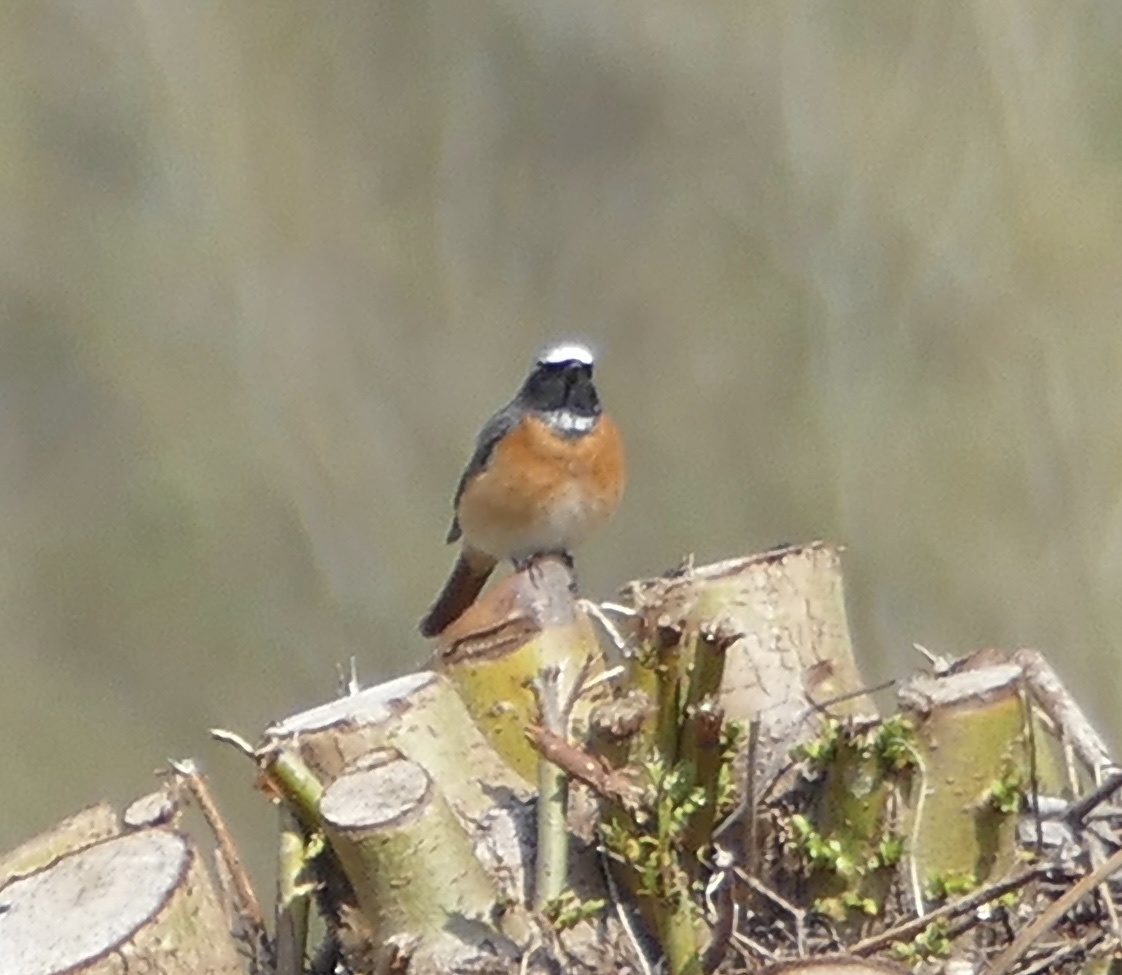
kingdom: Animalia
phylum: Chordata
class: Aves
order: Passeriformes
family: Muscicapidae
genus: Phoenicurus
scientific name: Phoenicurus phoenicurus
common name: Common redstart
